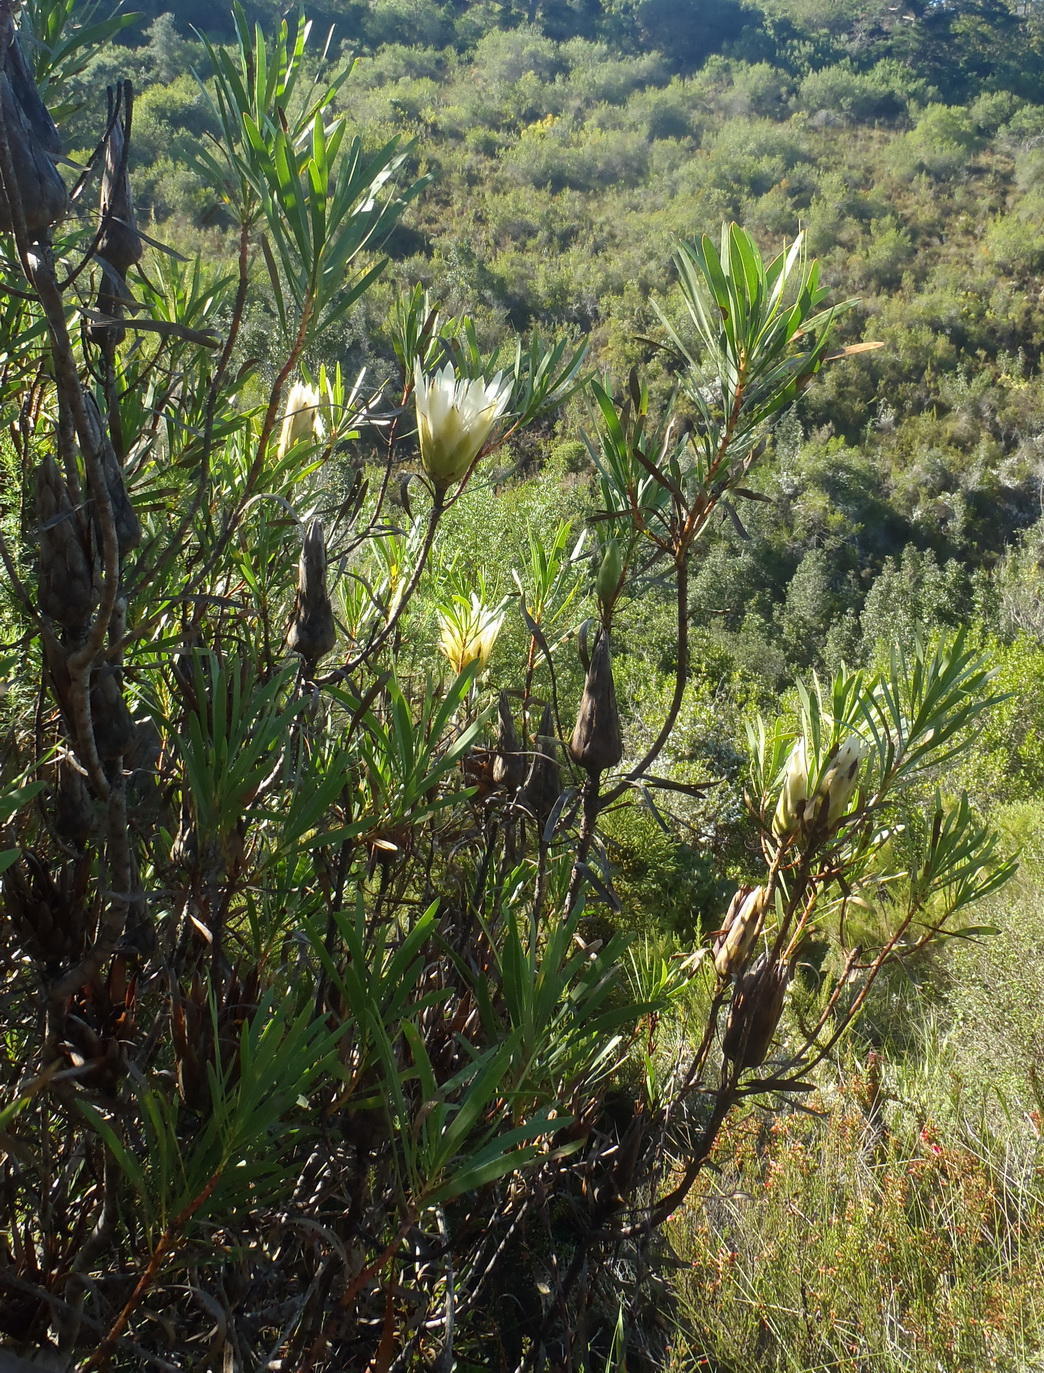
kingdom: Plantae
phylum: Tracheophyta
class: Magnoliopsida
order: Proteales
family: Proteaceae
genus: Protea
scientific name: Protea repens
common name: Sugarbush
